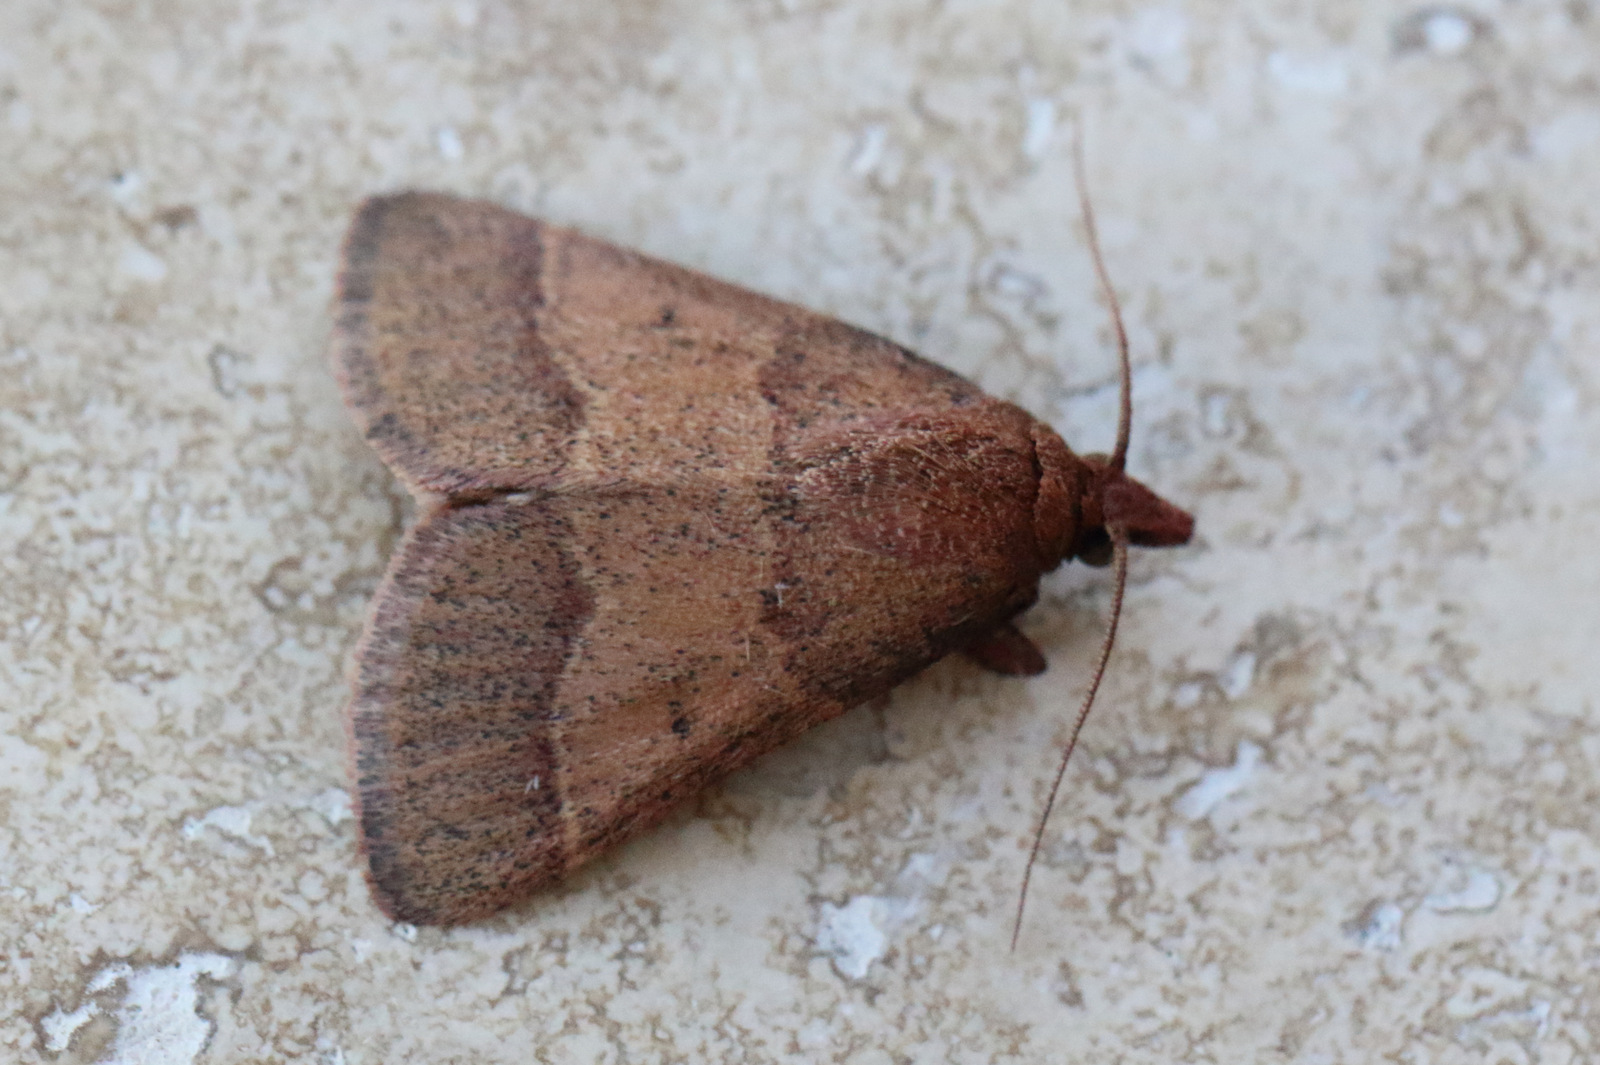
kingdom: Animalia
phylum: Arthropoda
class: Insecta
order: Lepidoptera
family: Pyralidae
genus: Arippara
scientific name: Arippara disticha
